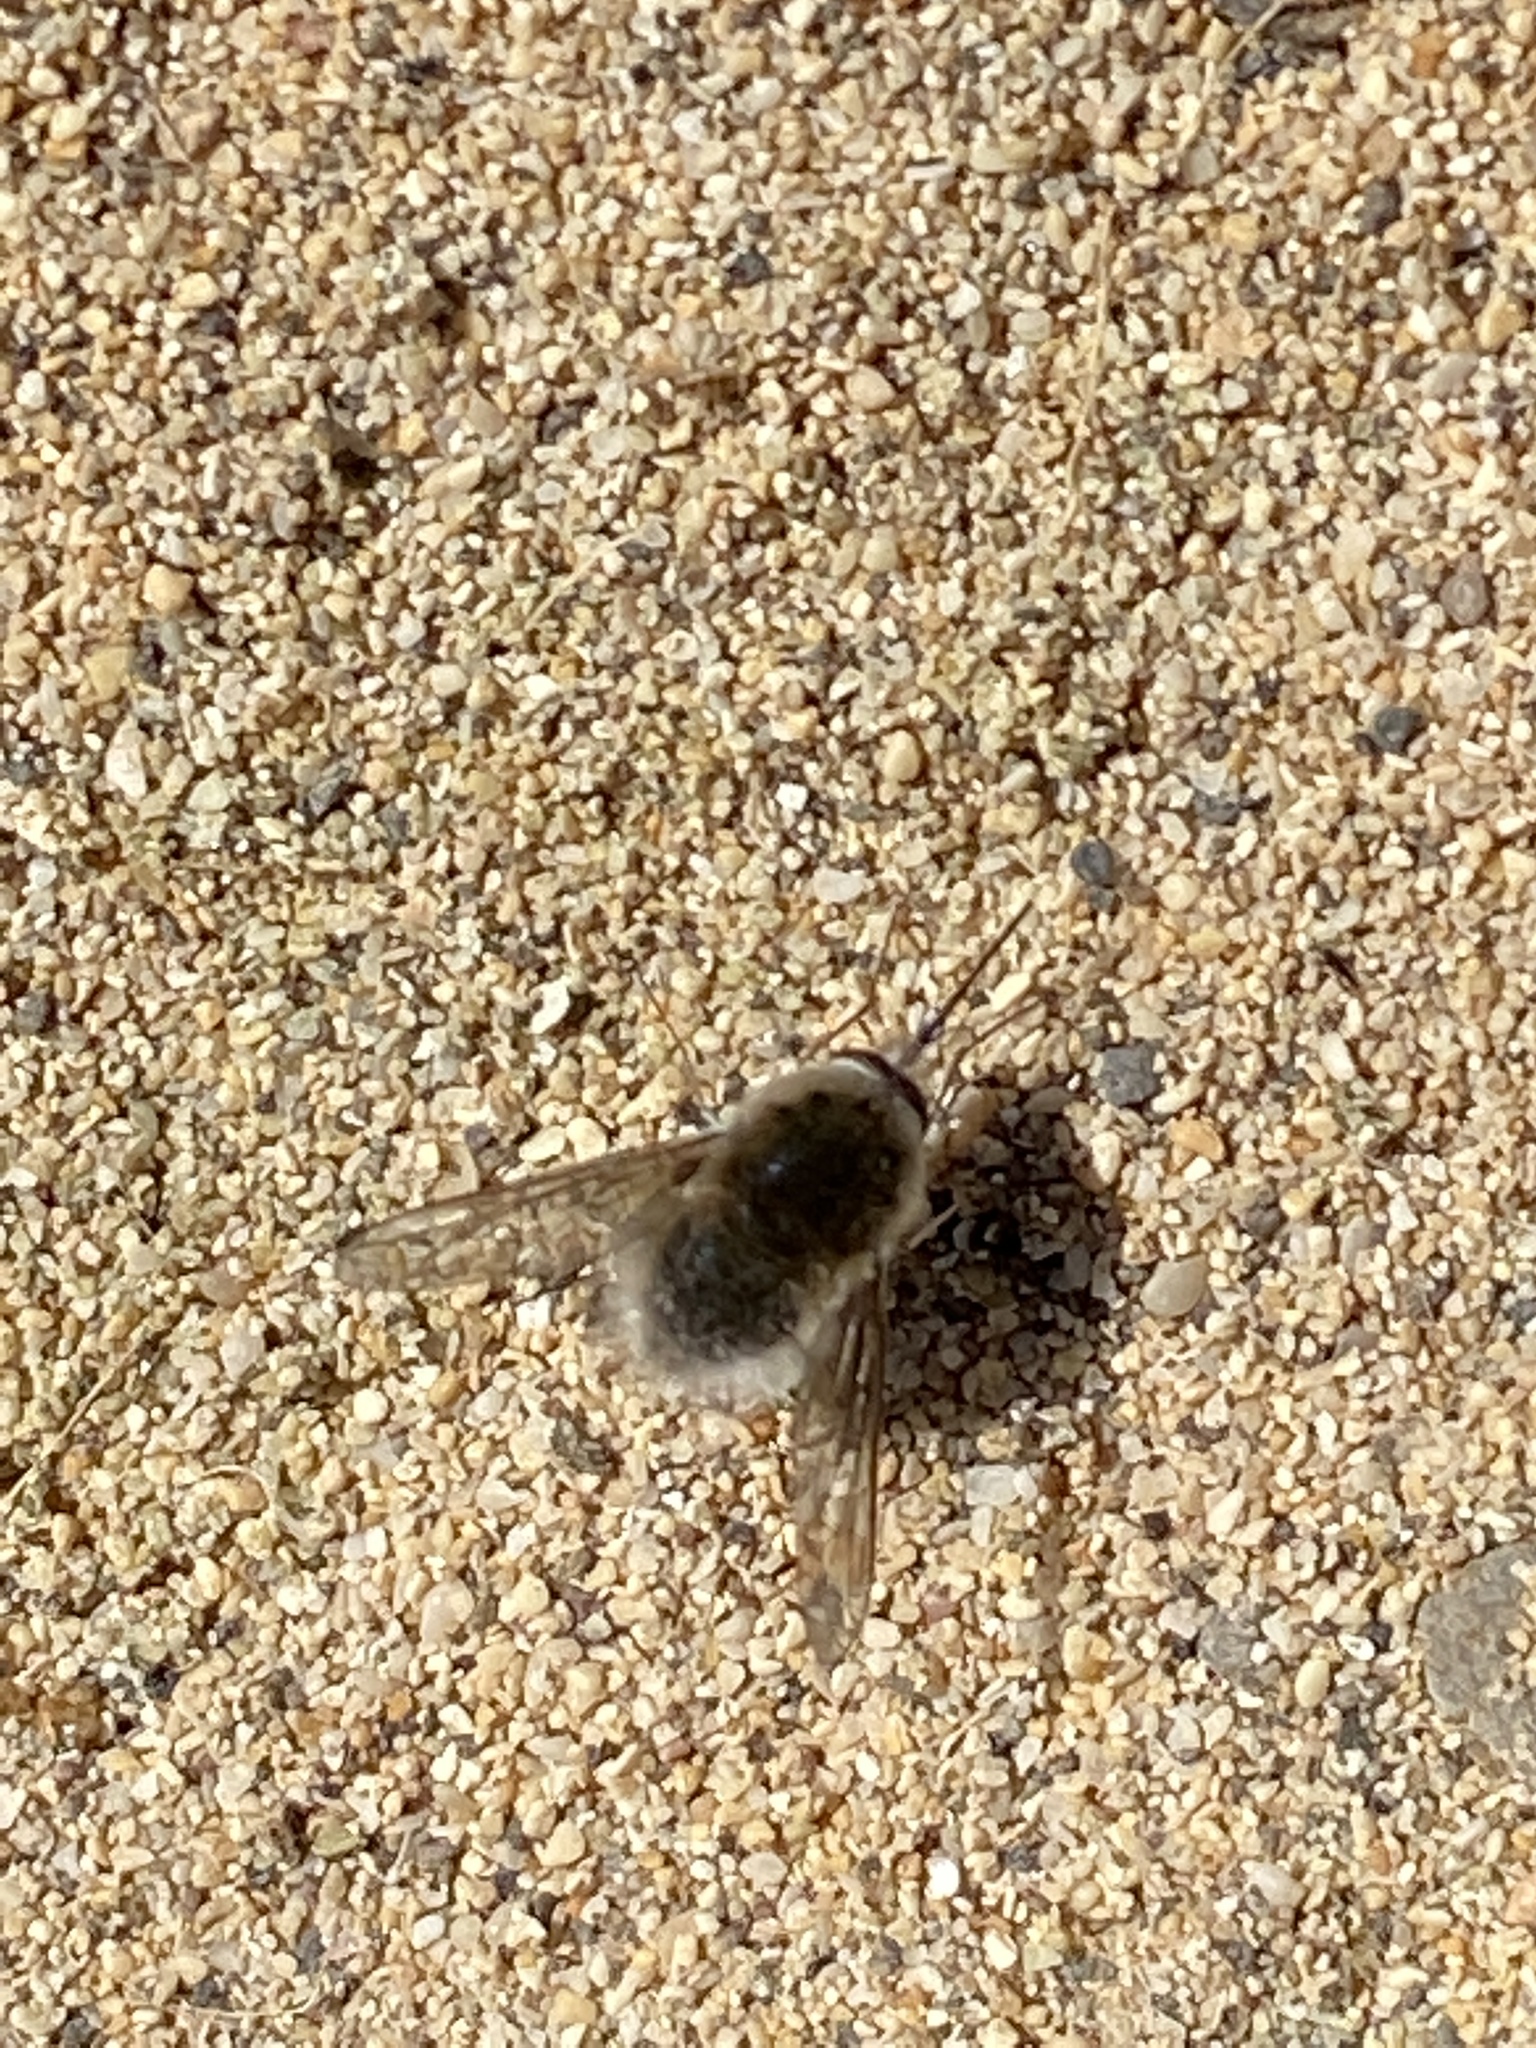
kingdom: Animalia
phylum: Arthropoda
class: Insecta
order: Diptera
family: Bombyliidae
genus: Bombylius
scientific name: Bombylius oceanus
